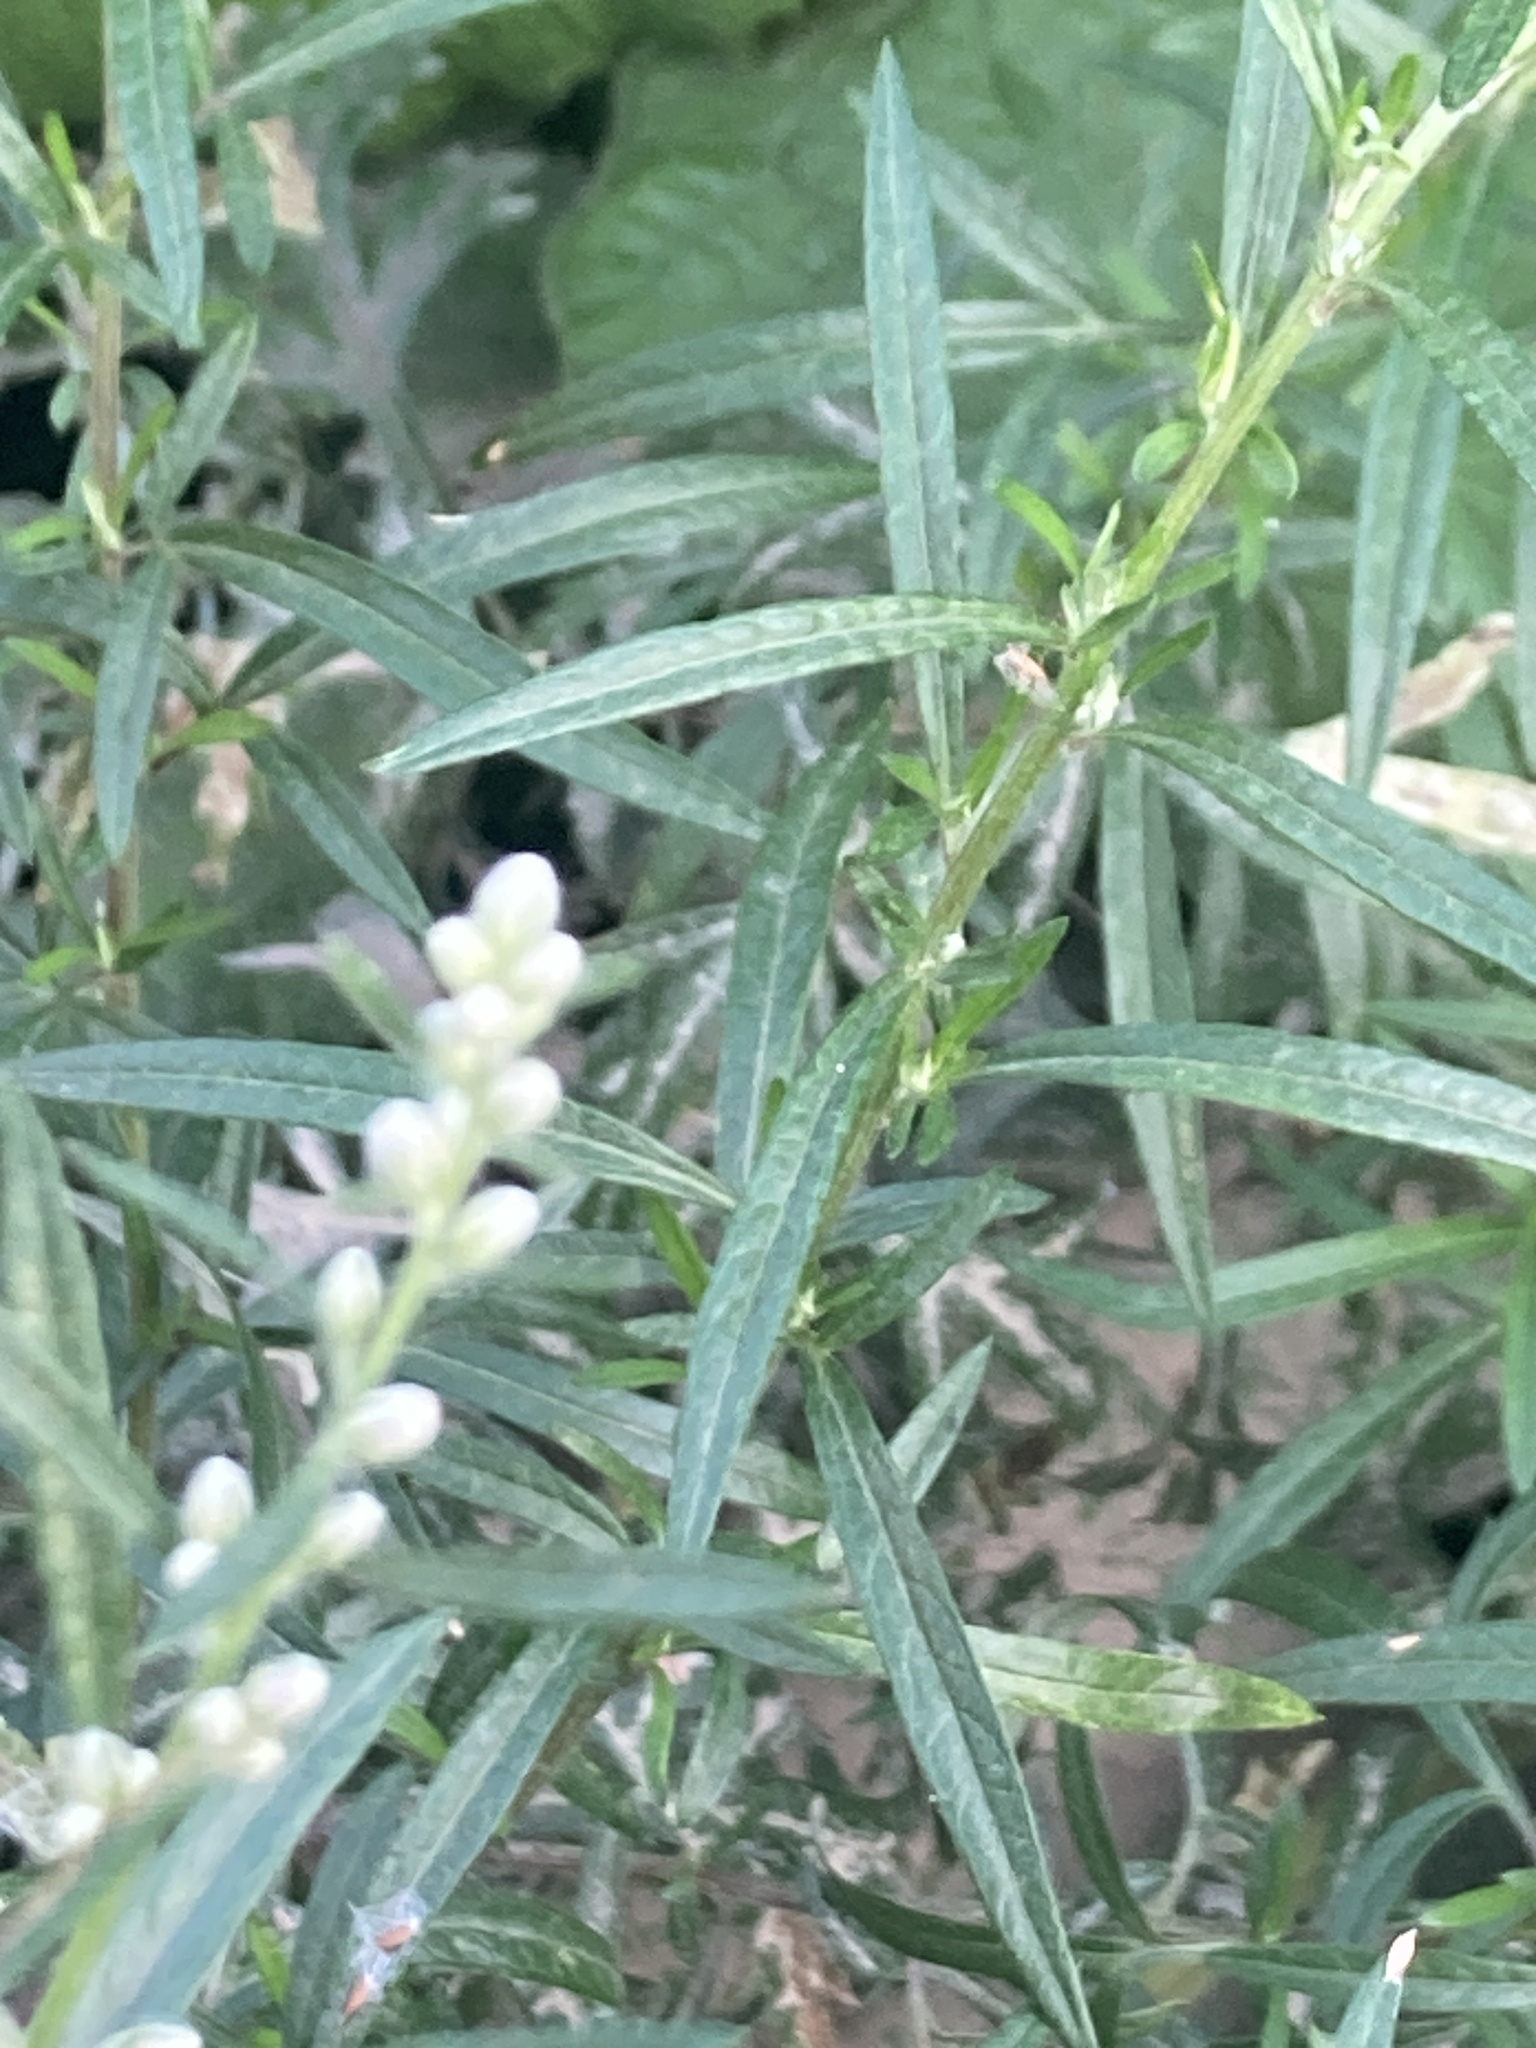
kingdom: Plantae
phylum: Tracheophyta
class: Magnoliopsida
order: Asterales
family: Asteraceae
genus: Artemisia
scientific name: Artemisia vulgaris
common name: Mugwort
